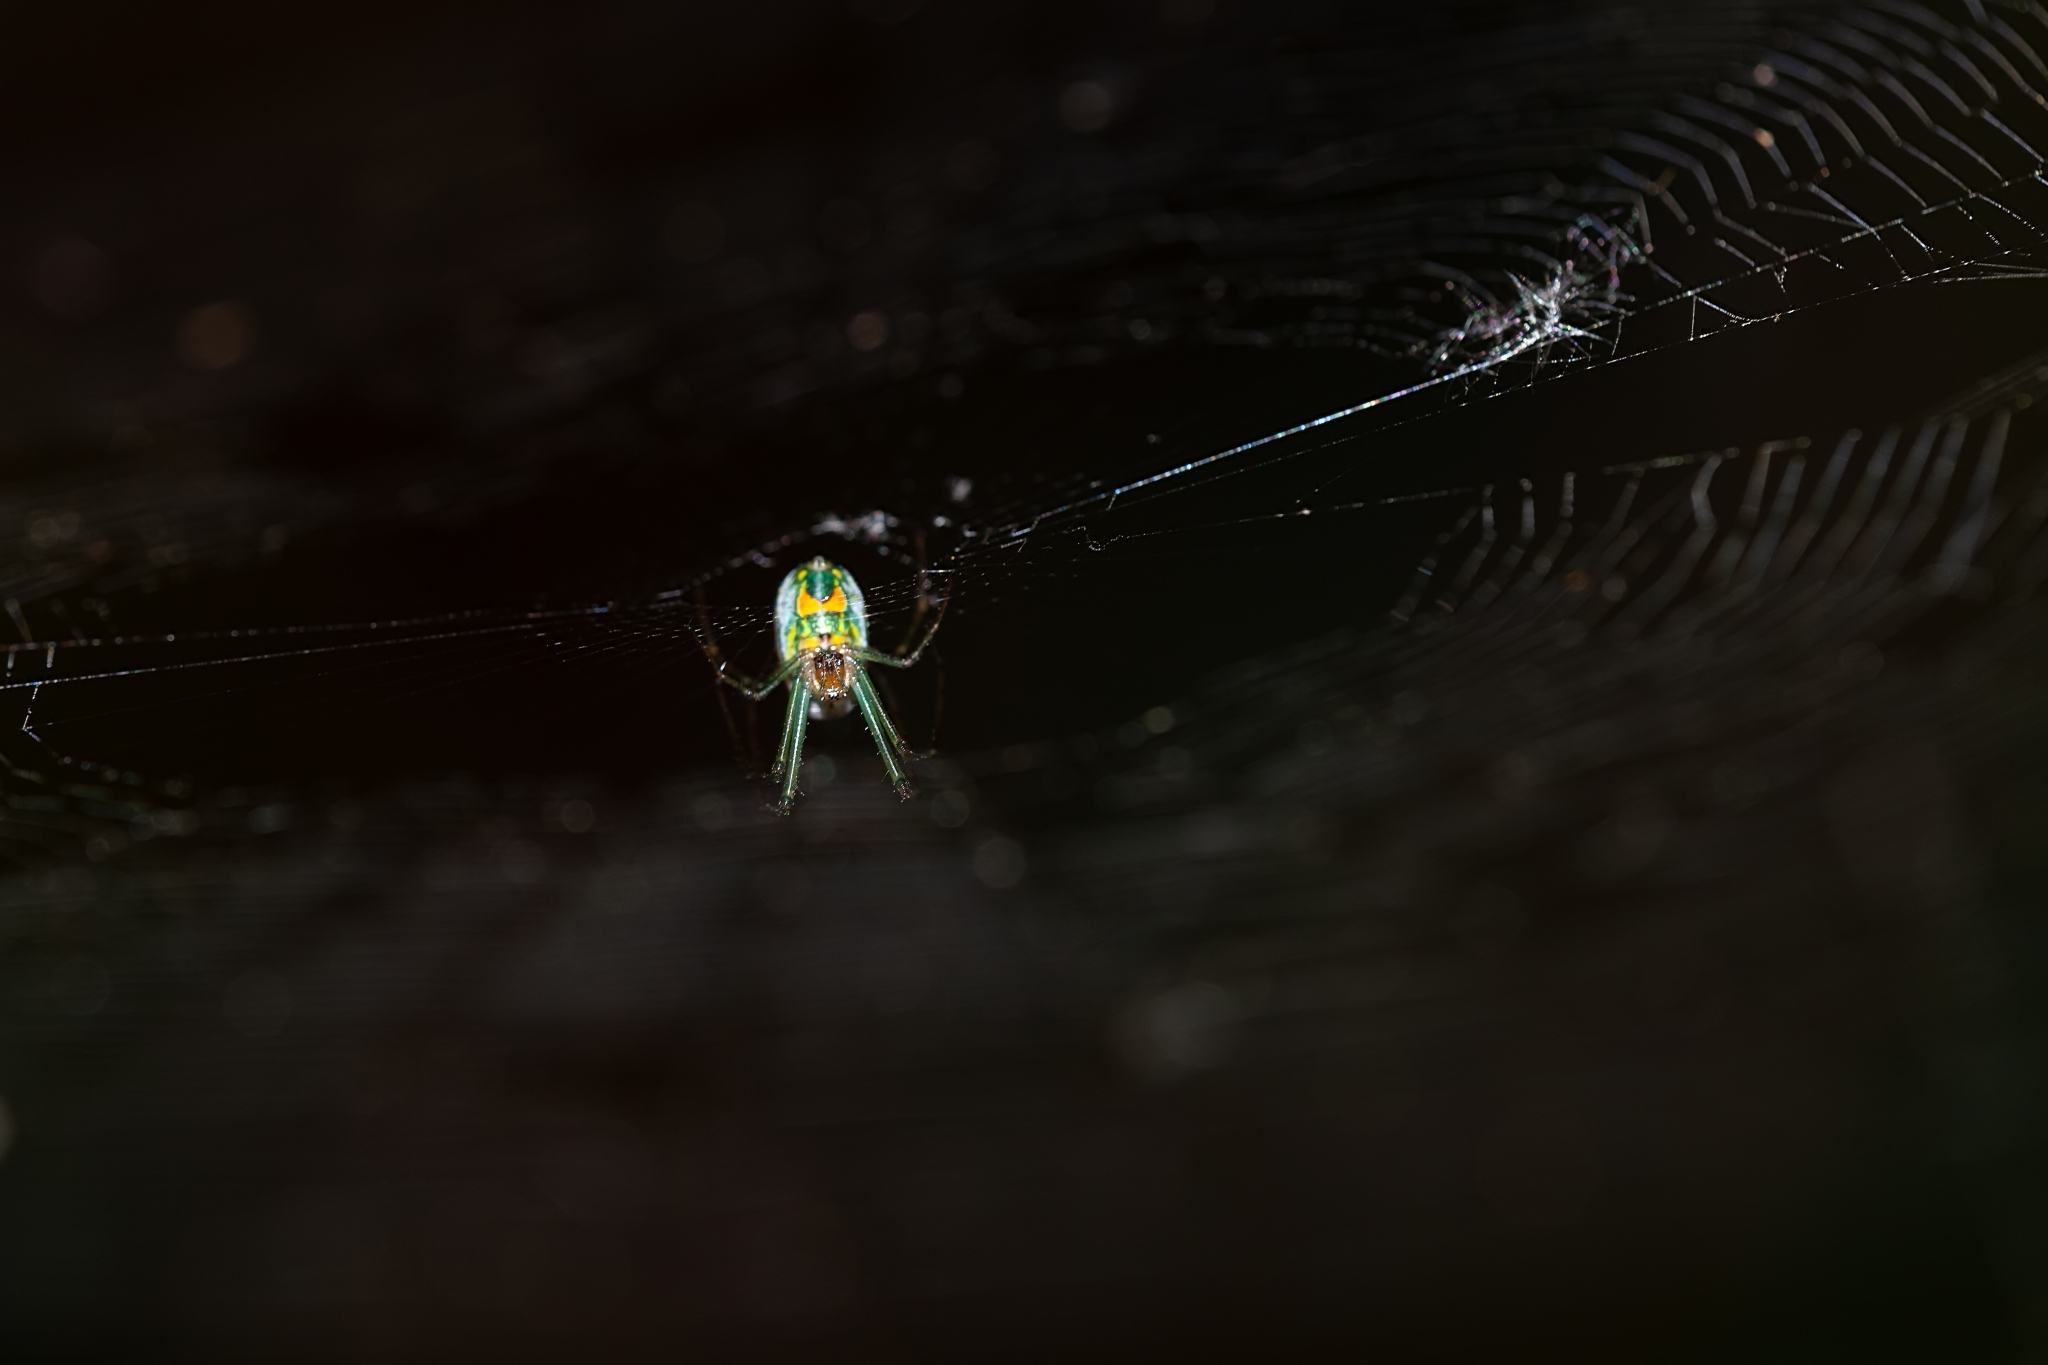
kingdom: Animalia
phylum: Arthropoda
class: Arachnida
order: Araneae
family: Tetragnathidae
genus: Leucauge
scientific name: Leucauge argyrobapta
